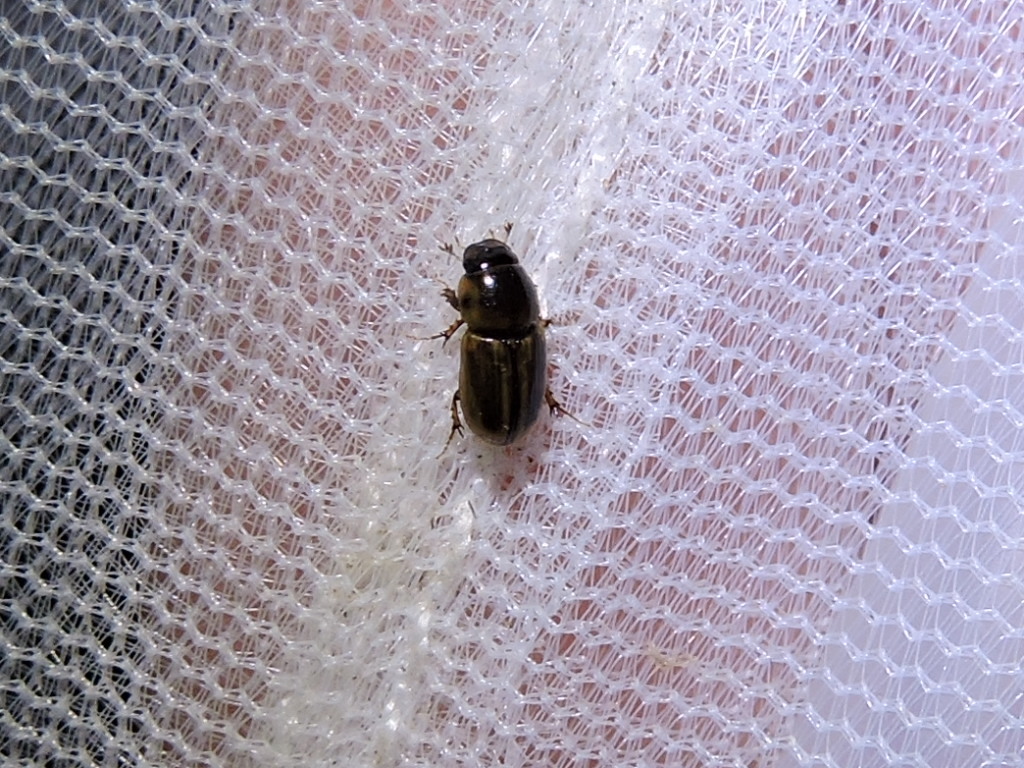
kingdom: Animalia
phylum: Arthropoda
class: Insecta
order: Coleoptera
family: Scarabaeidae
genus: Labarrus
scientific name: Labarrus lividus
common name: Scarab beetle
